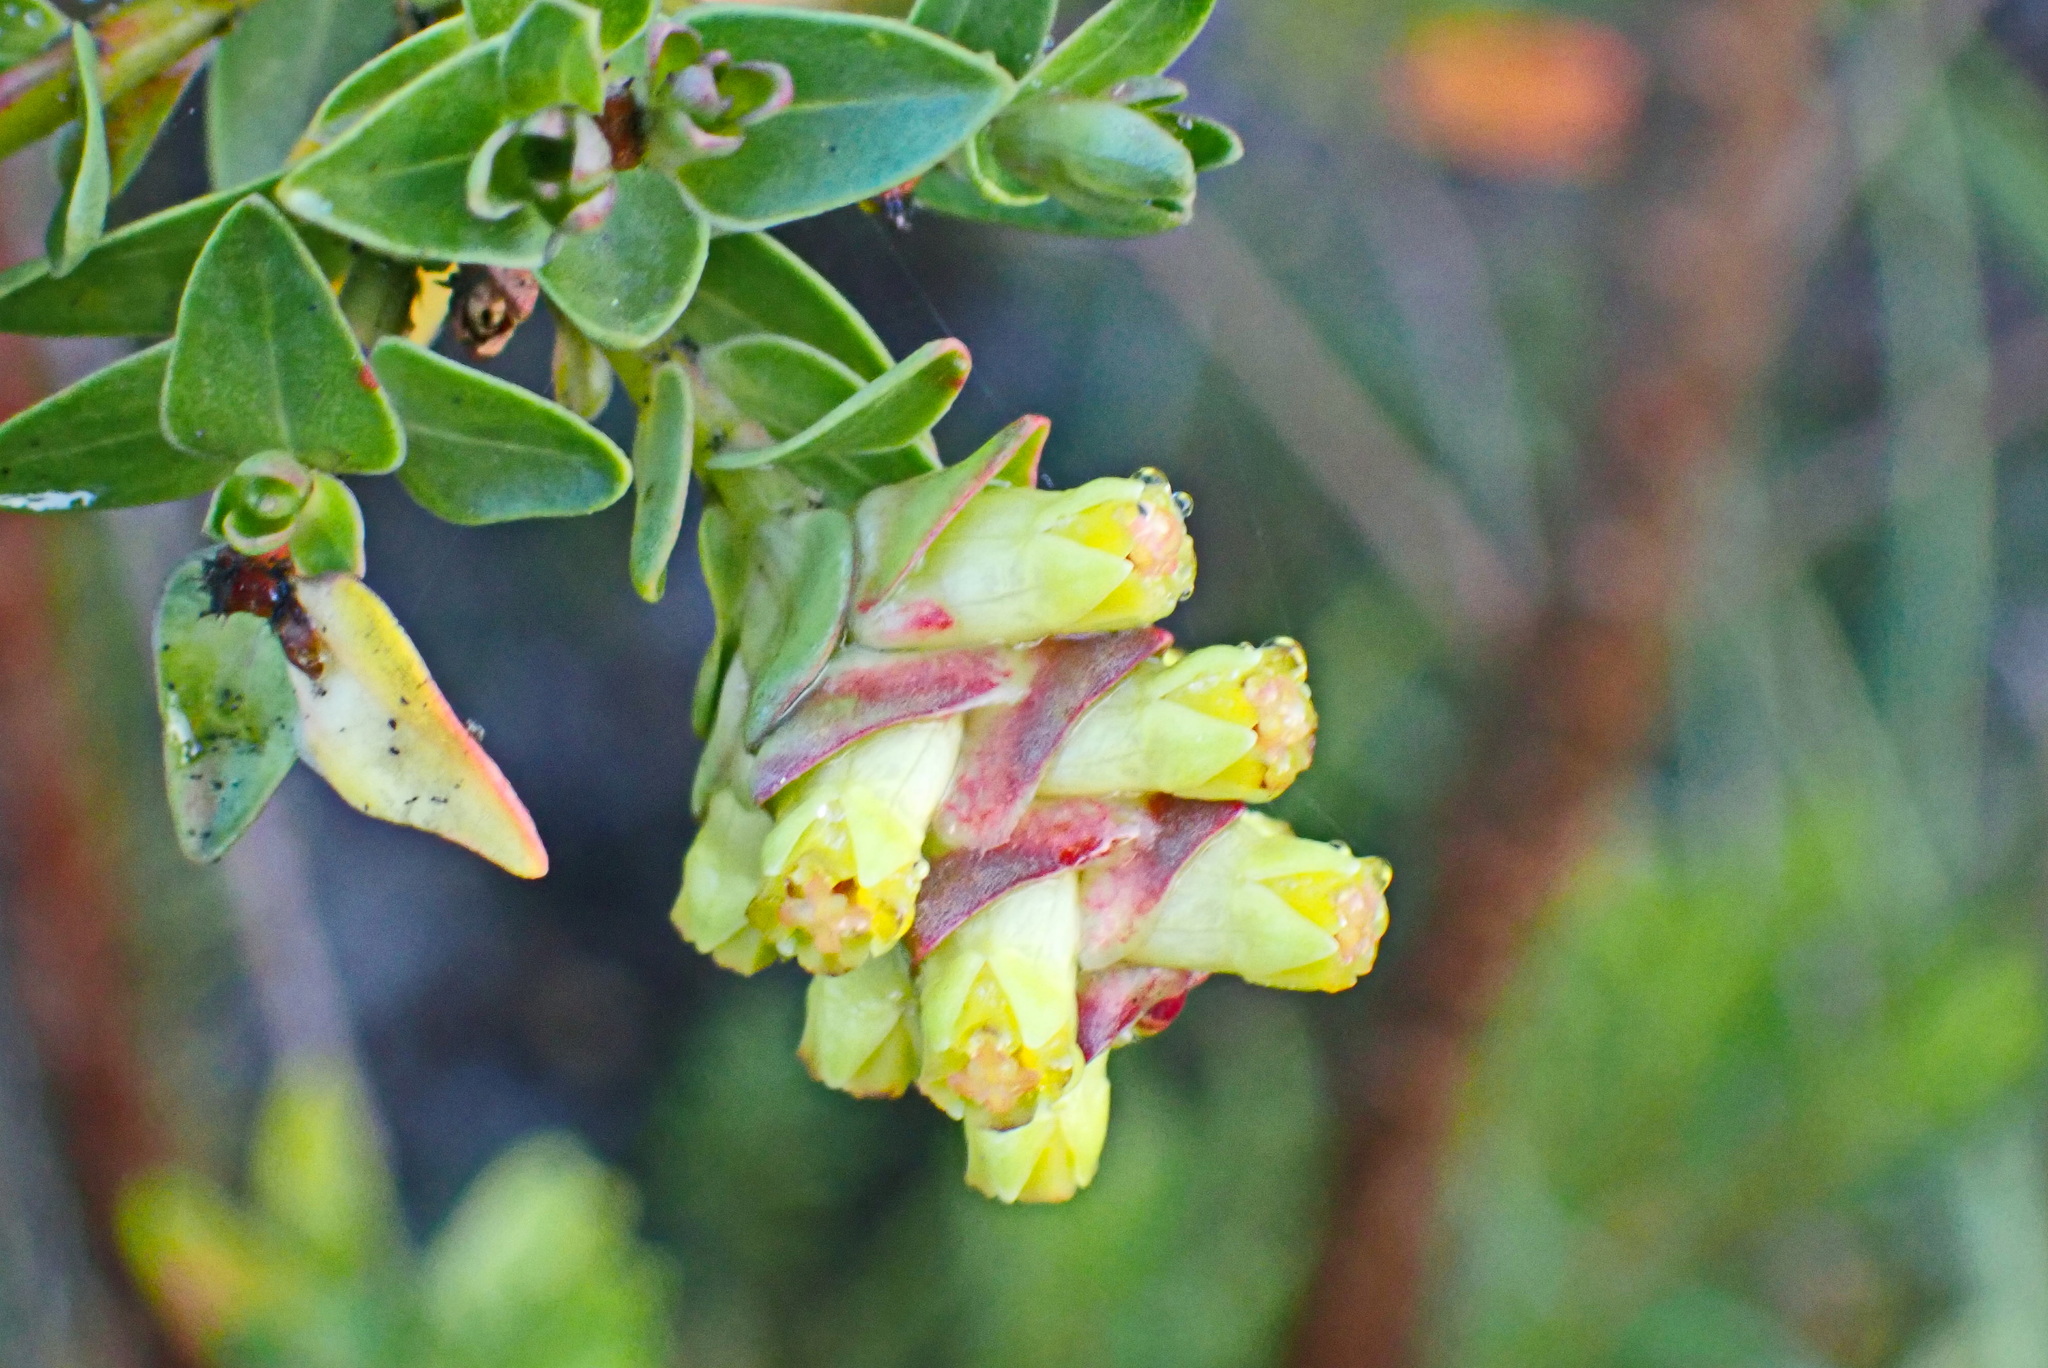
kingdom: Plantae
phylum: Tracheophyta
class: Magnoliopsida
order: Myrtales
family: Penaeaceae
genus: Penaea
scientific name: Penaea cneorum
